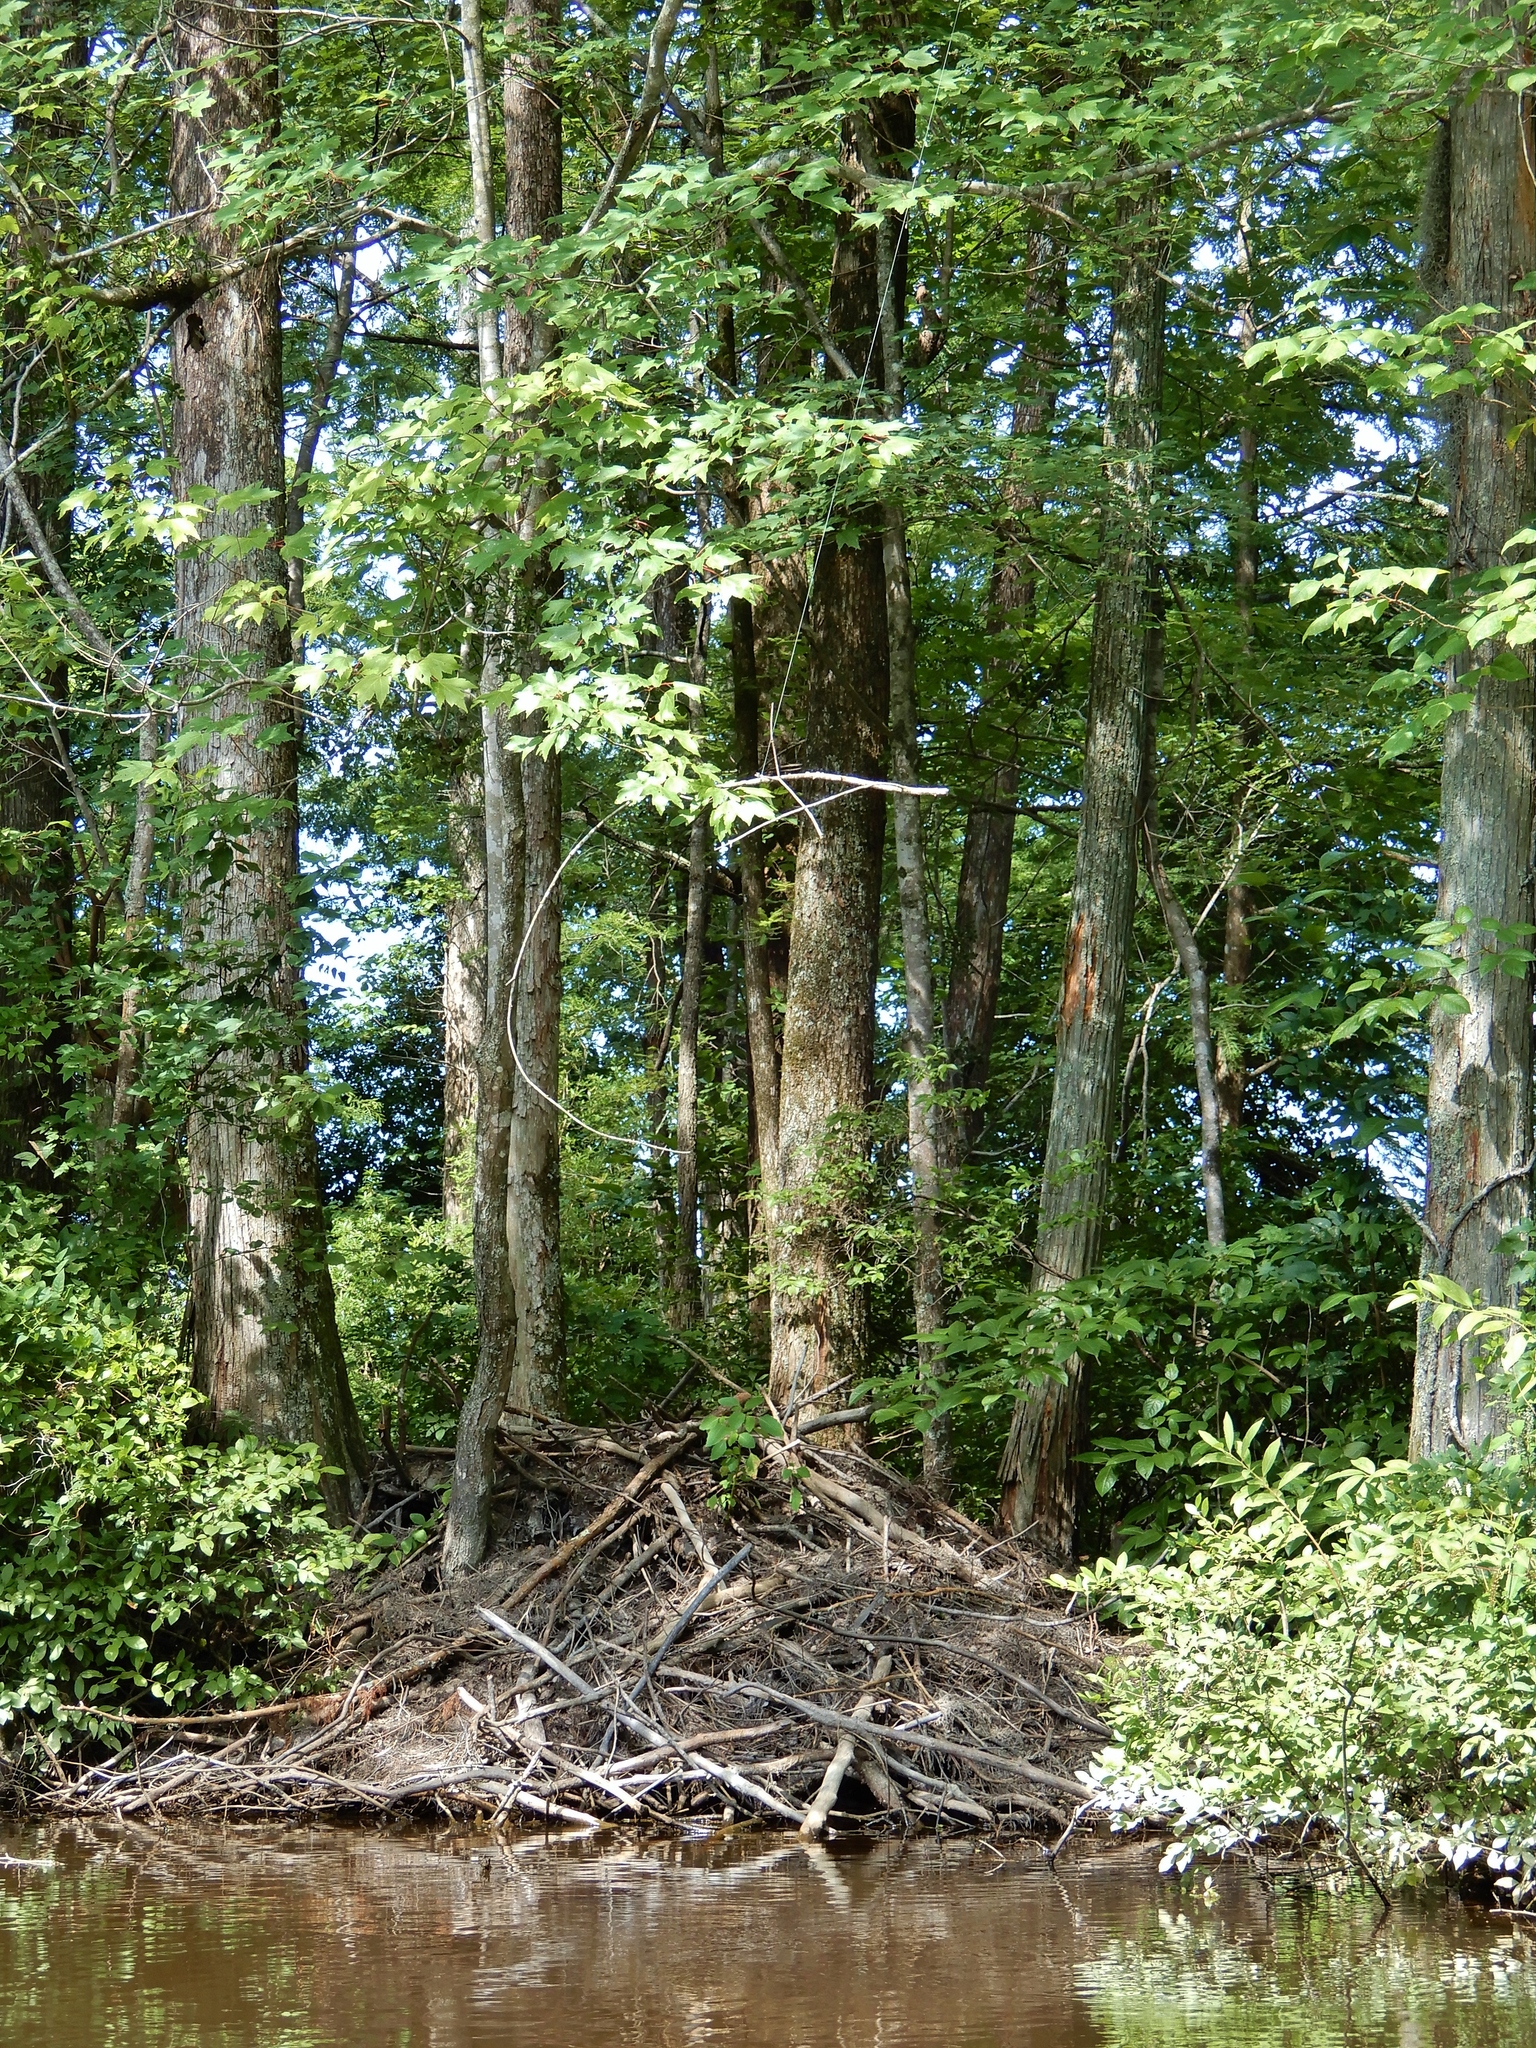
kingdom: Animalia
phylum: Chordata
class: Mammalia
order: Rodentia
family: Castoridae
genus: Castor
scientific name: Castor canadensis
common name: American beaver
